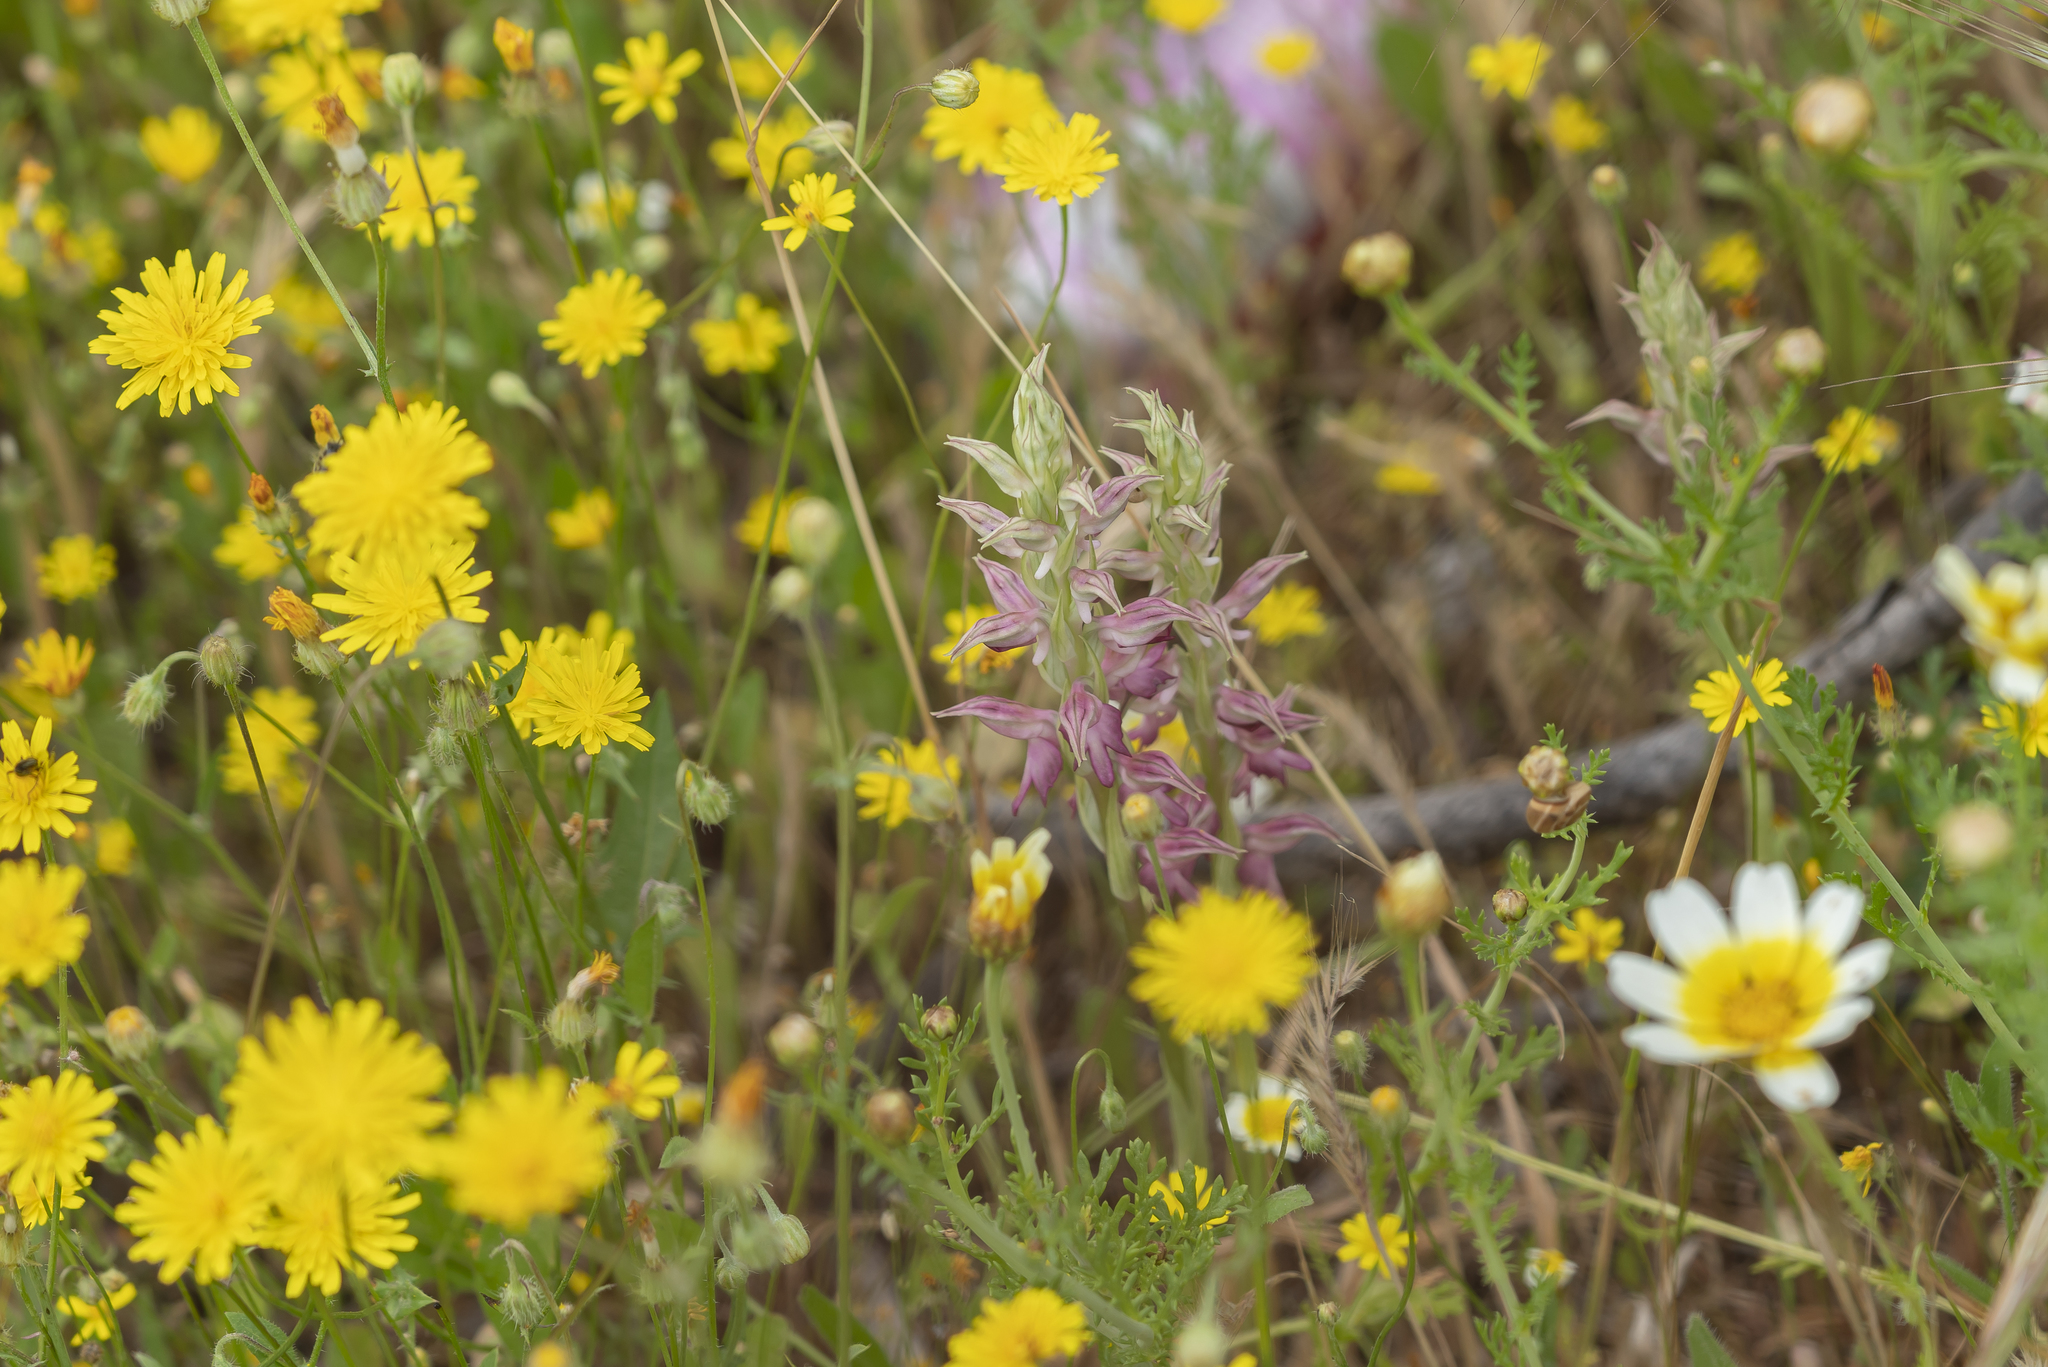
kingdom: Plantae
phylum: Tracheophyta
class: Liliopsida
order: Asparagales
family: Orchidaceae
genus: Anacamptis
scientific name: Anacamptis sancta
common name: Holy orchid
